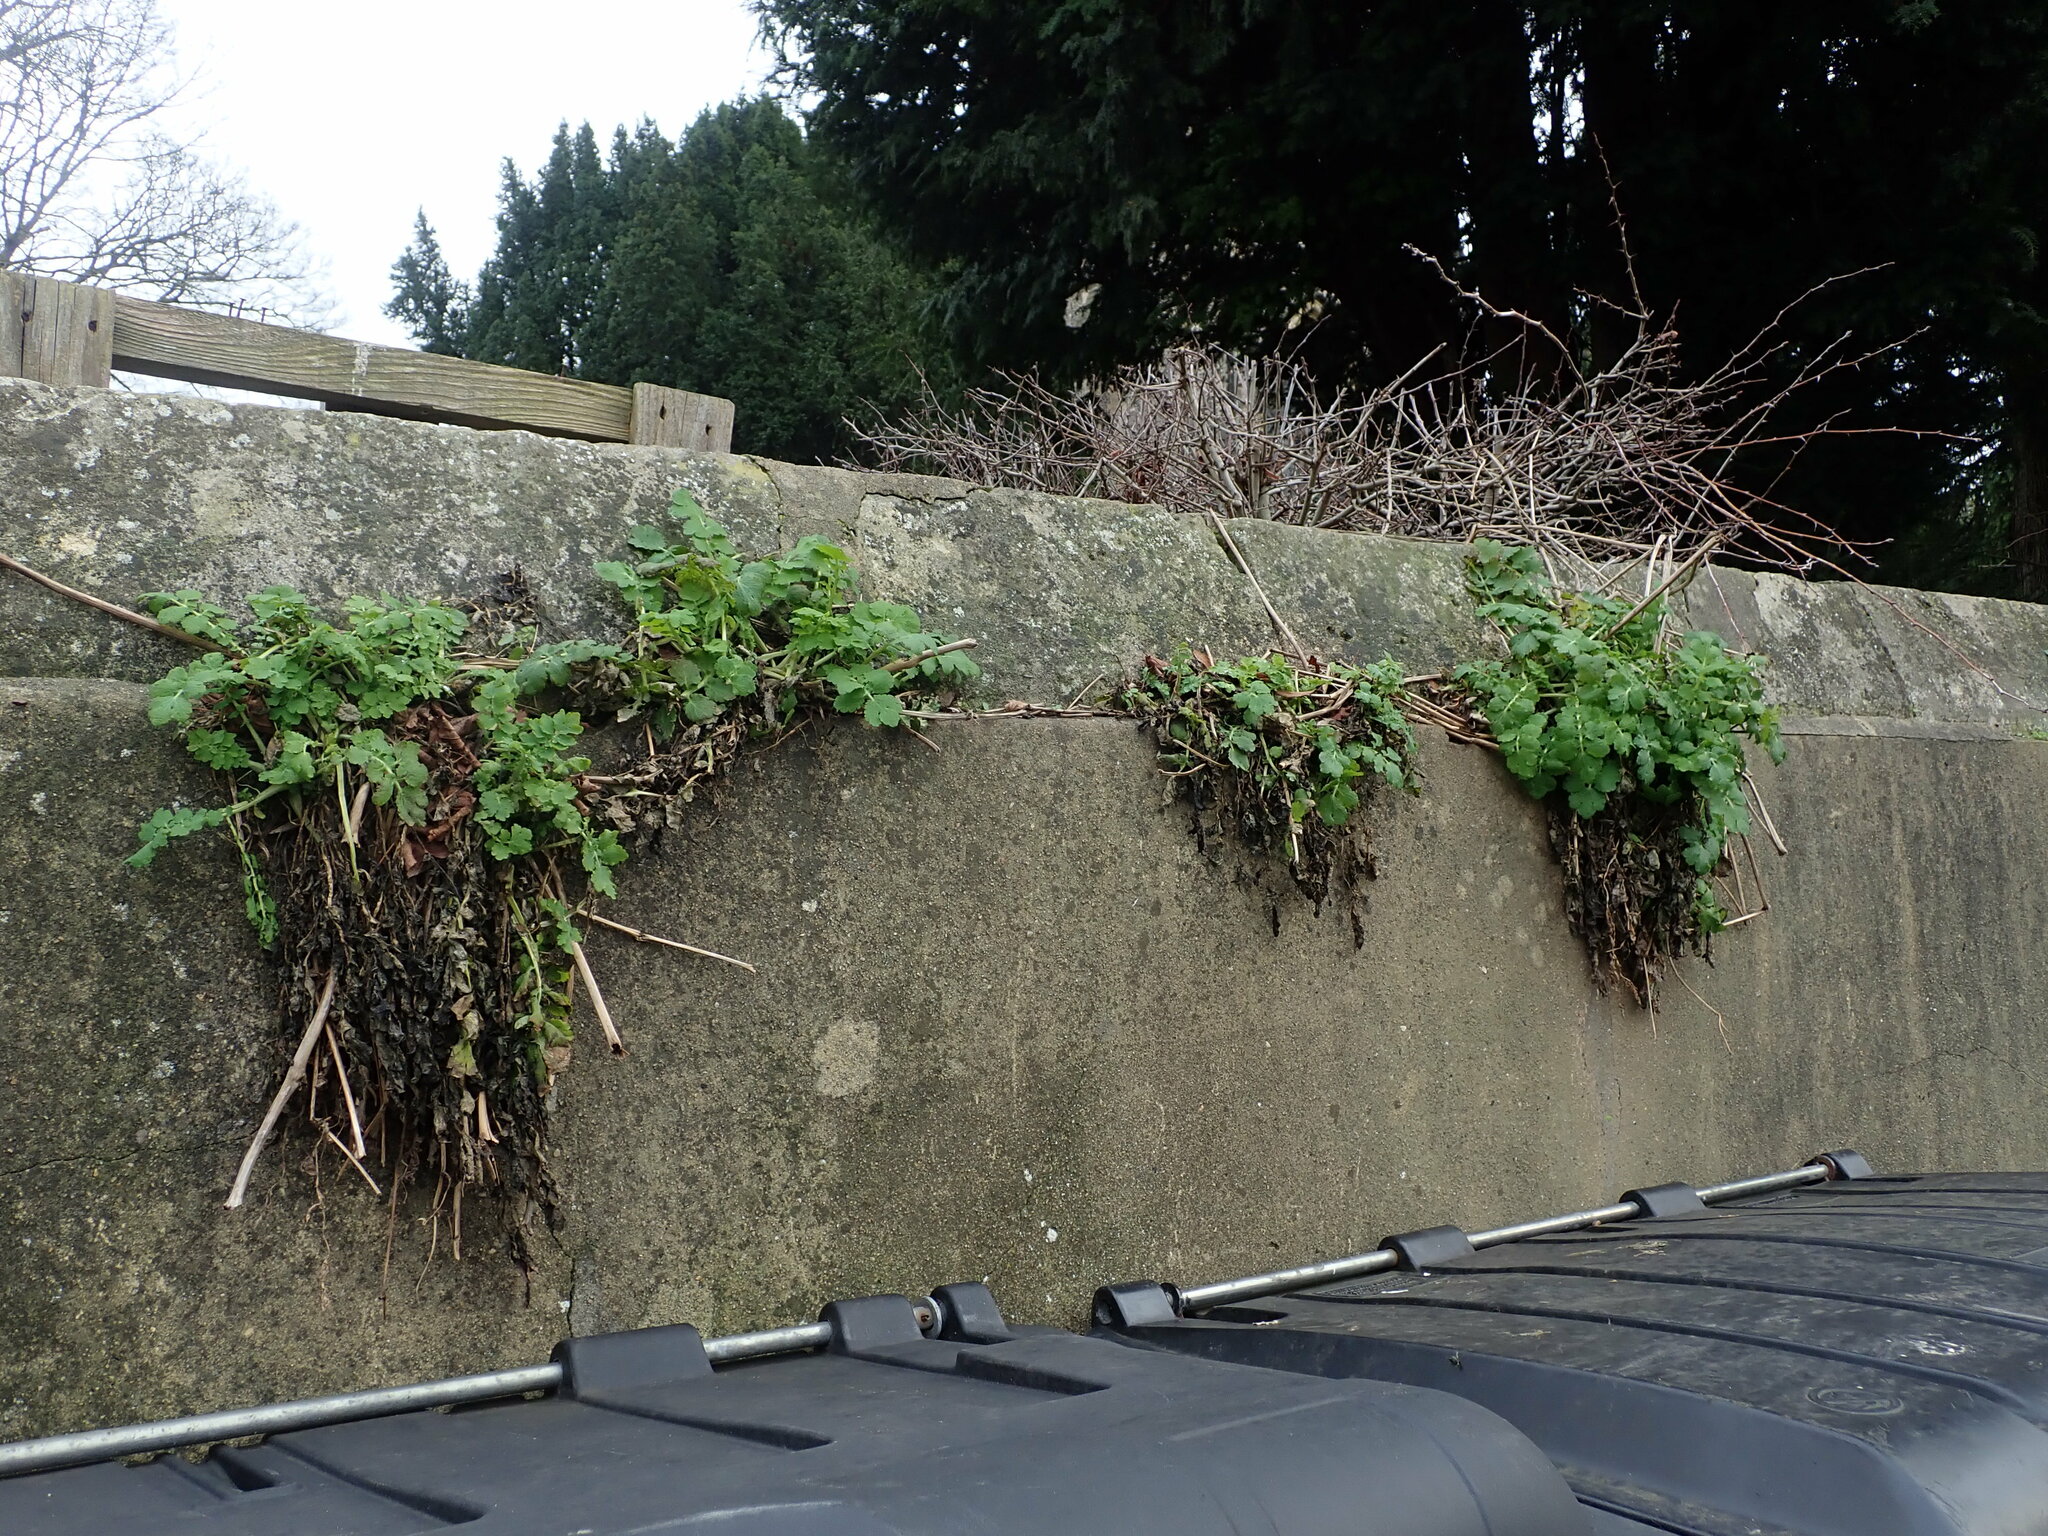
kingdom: Plantae
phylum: Tracheophyta
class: Magnoliopsida
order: Ranunculales
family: Papaveraceae
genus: Chelidonium
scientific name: Chelidonium majus
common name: Greater celandine
